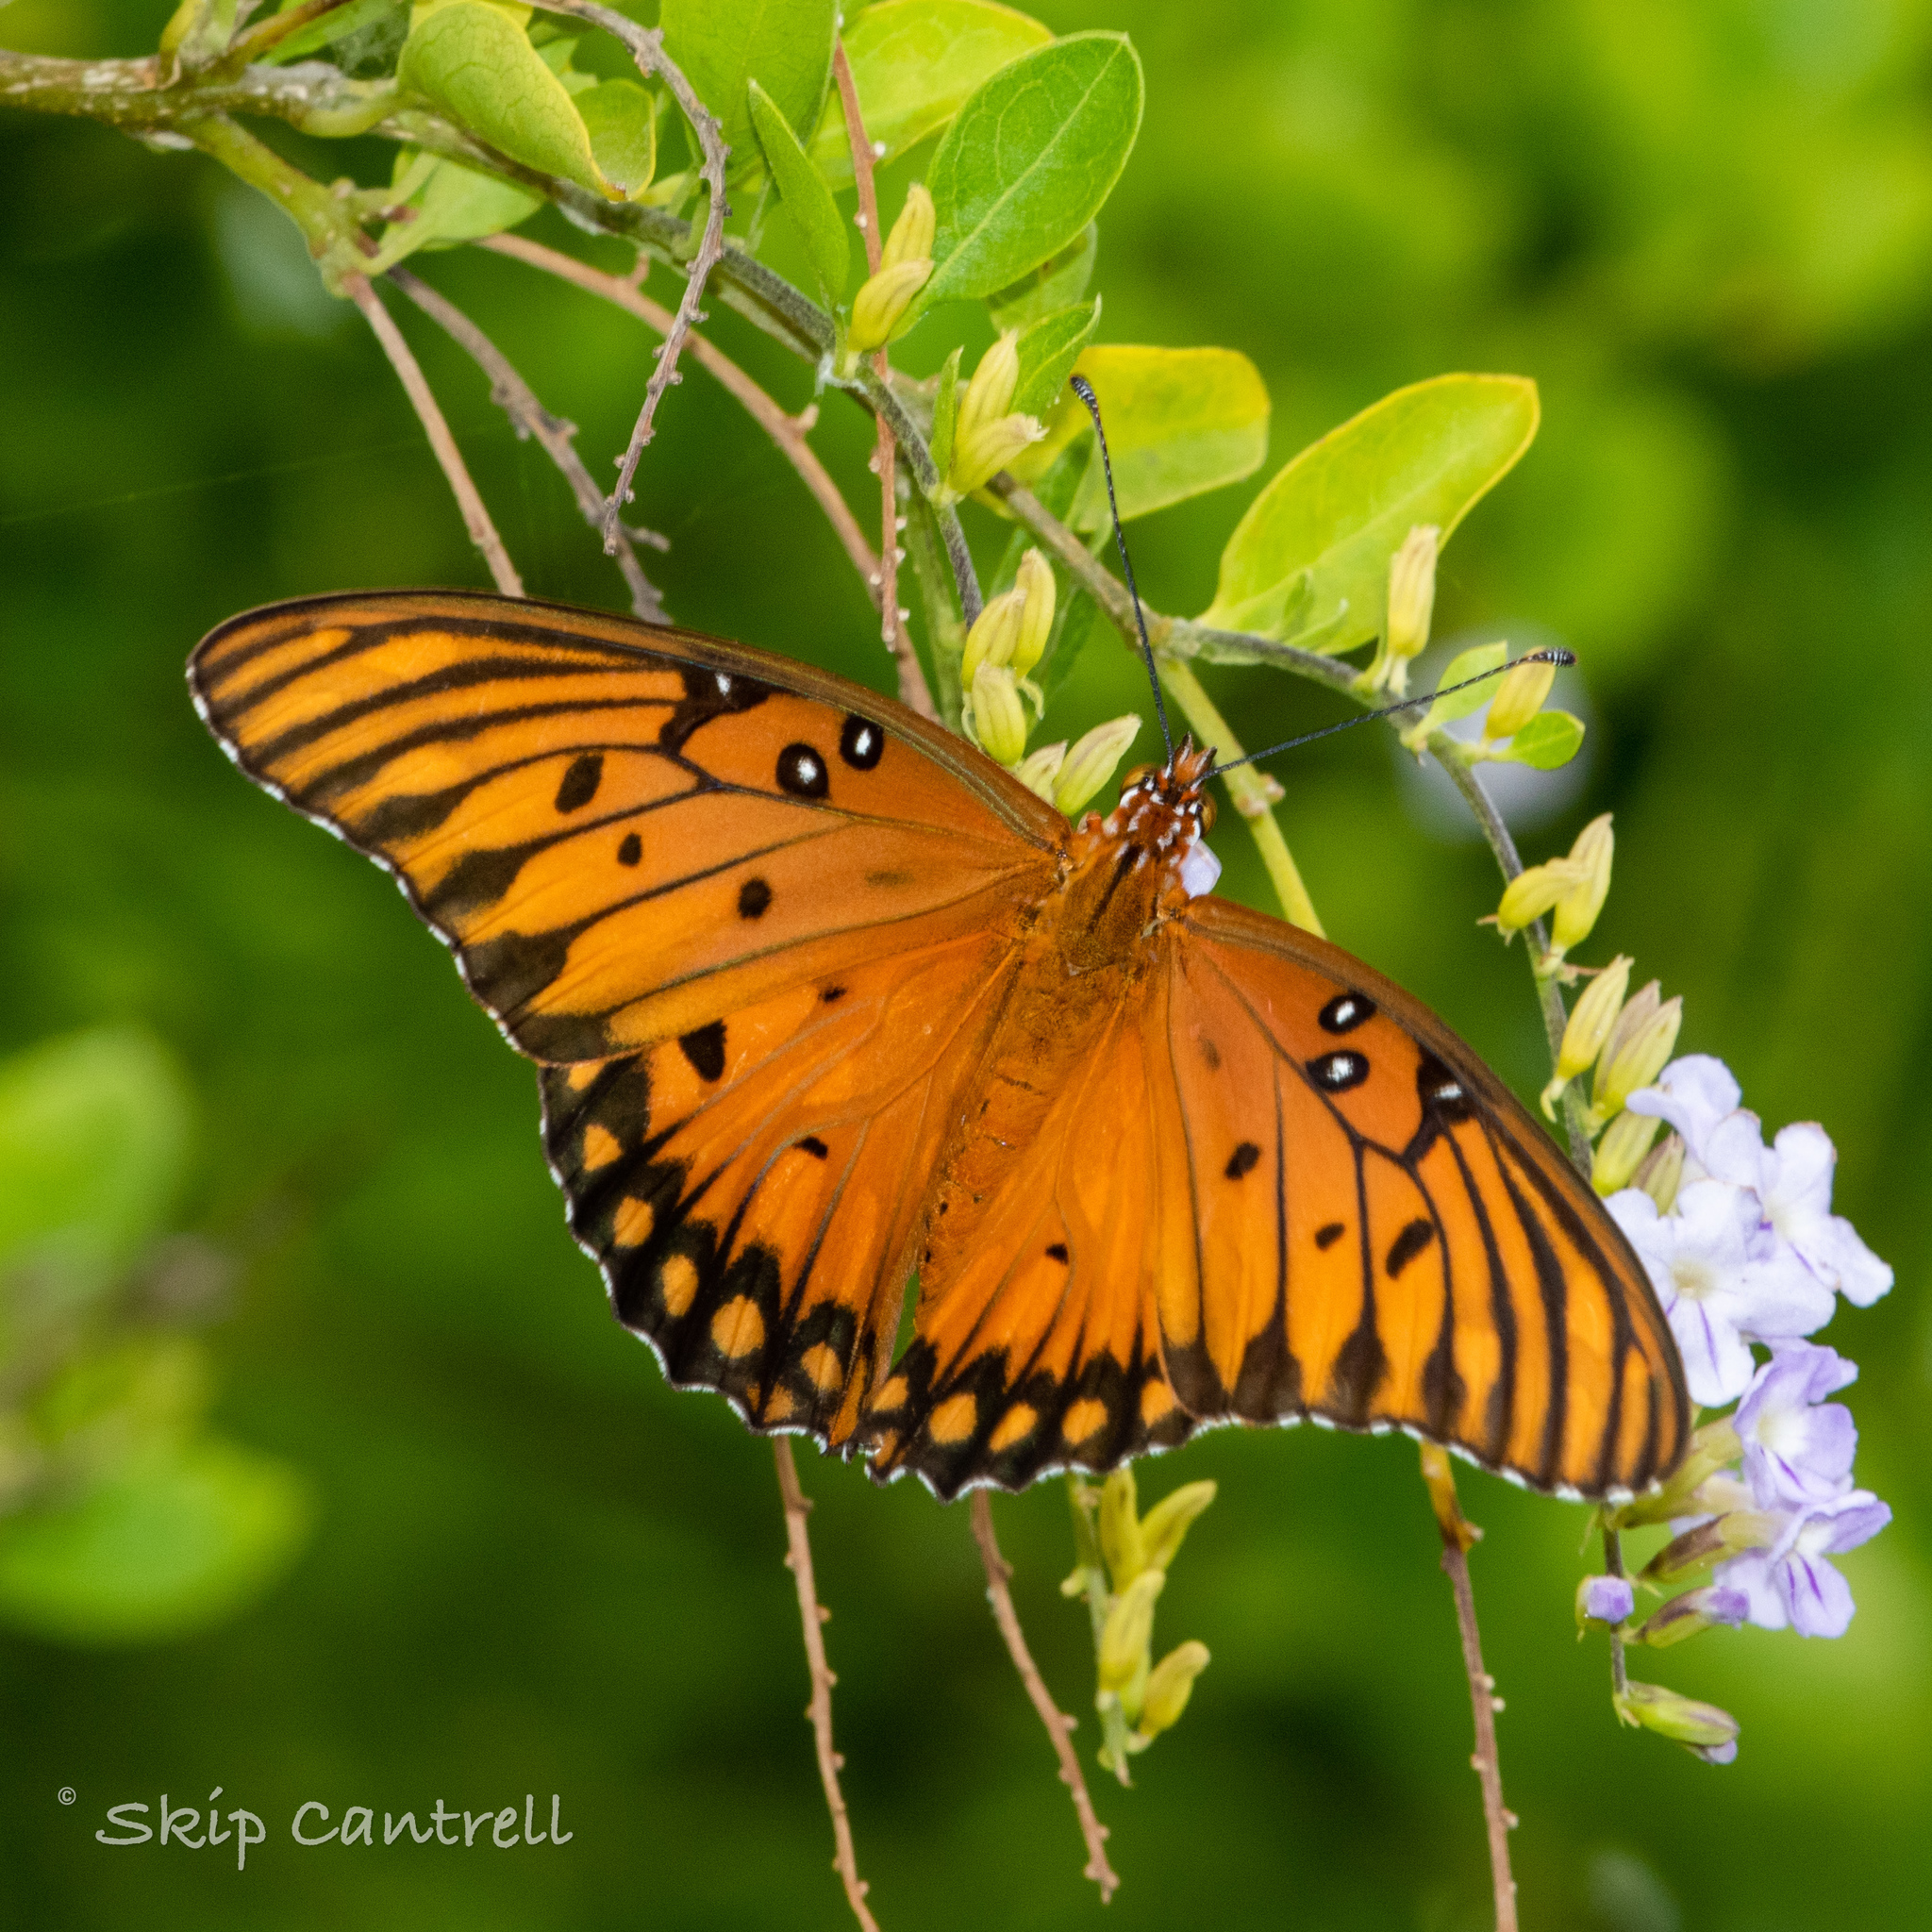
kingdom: Animalia
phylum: Arthropoda
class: Insecta
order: Lepidoptera
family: Nymphalidae
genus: Dione
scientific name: Dione vanillae
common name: Gulf fritillary
